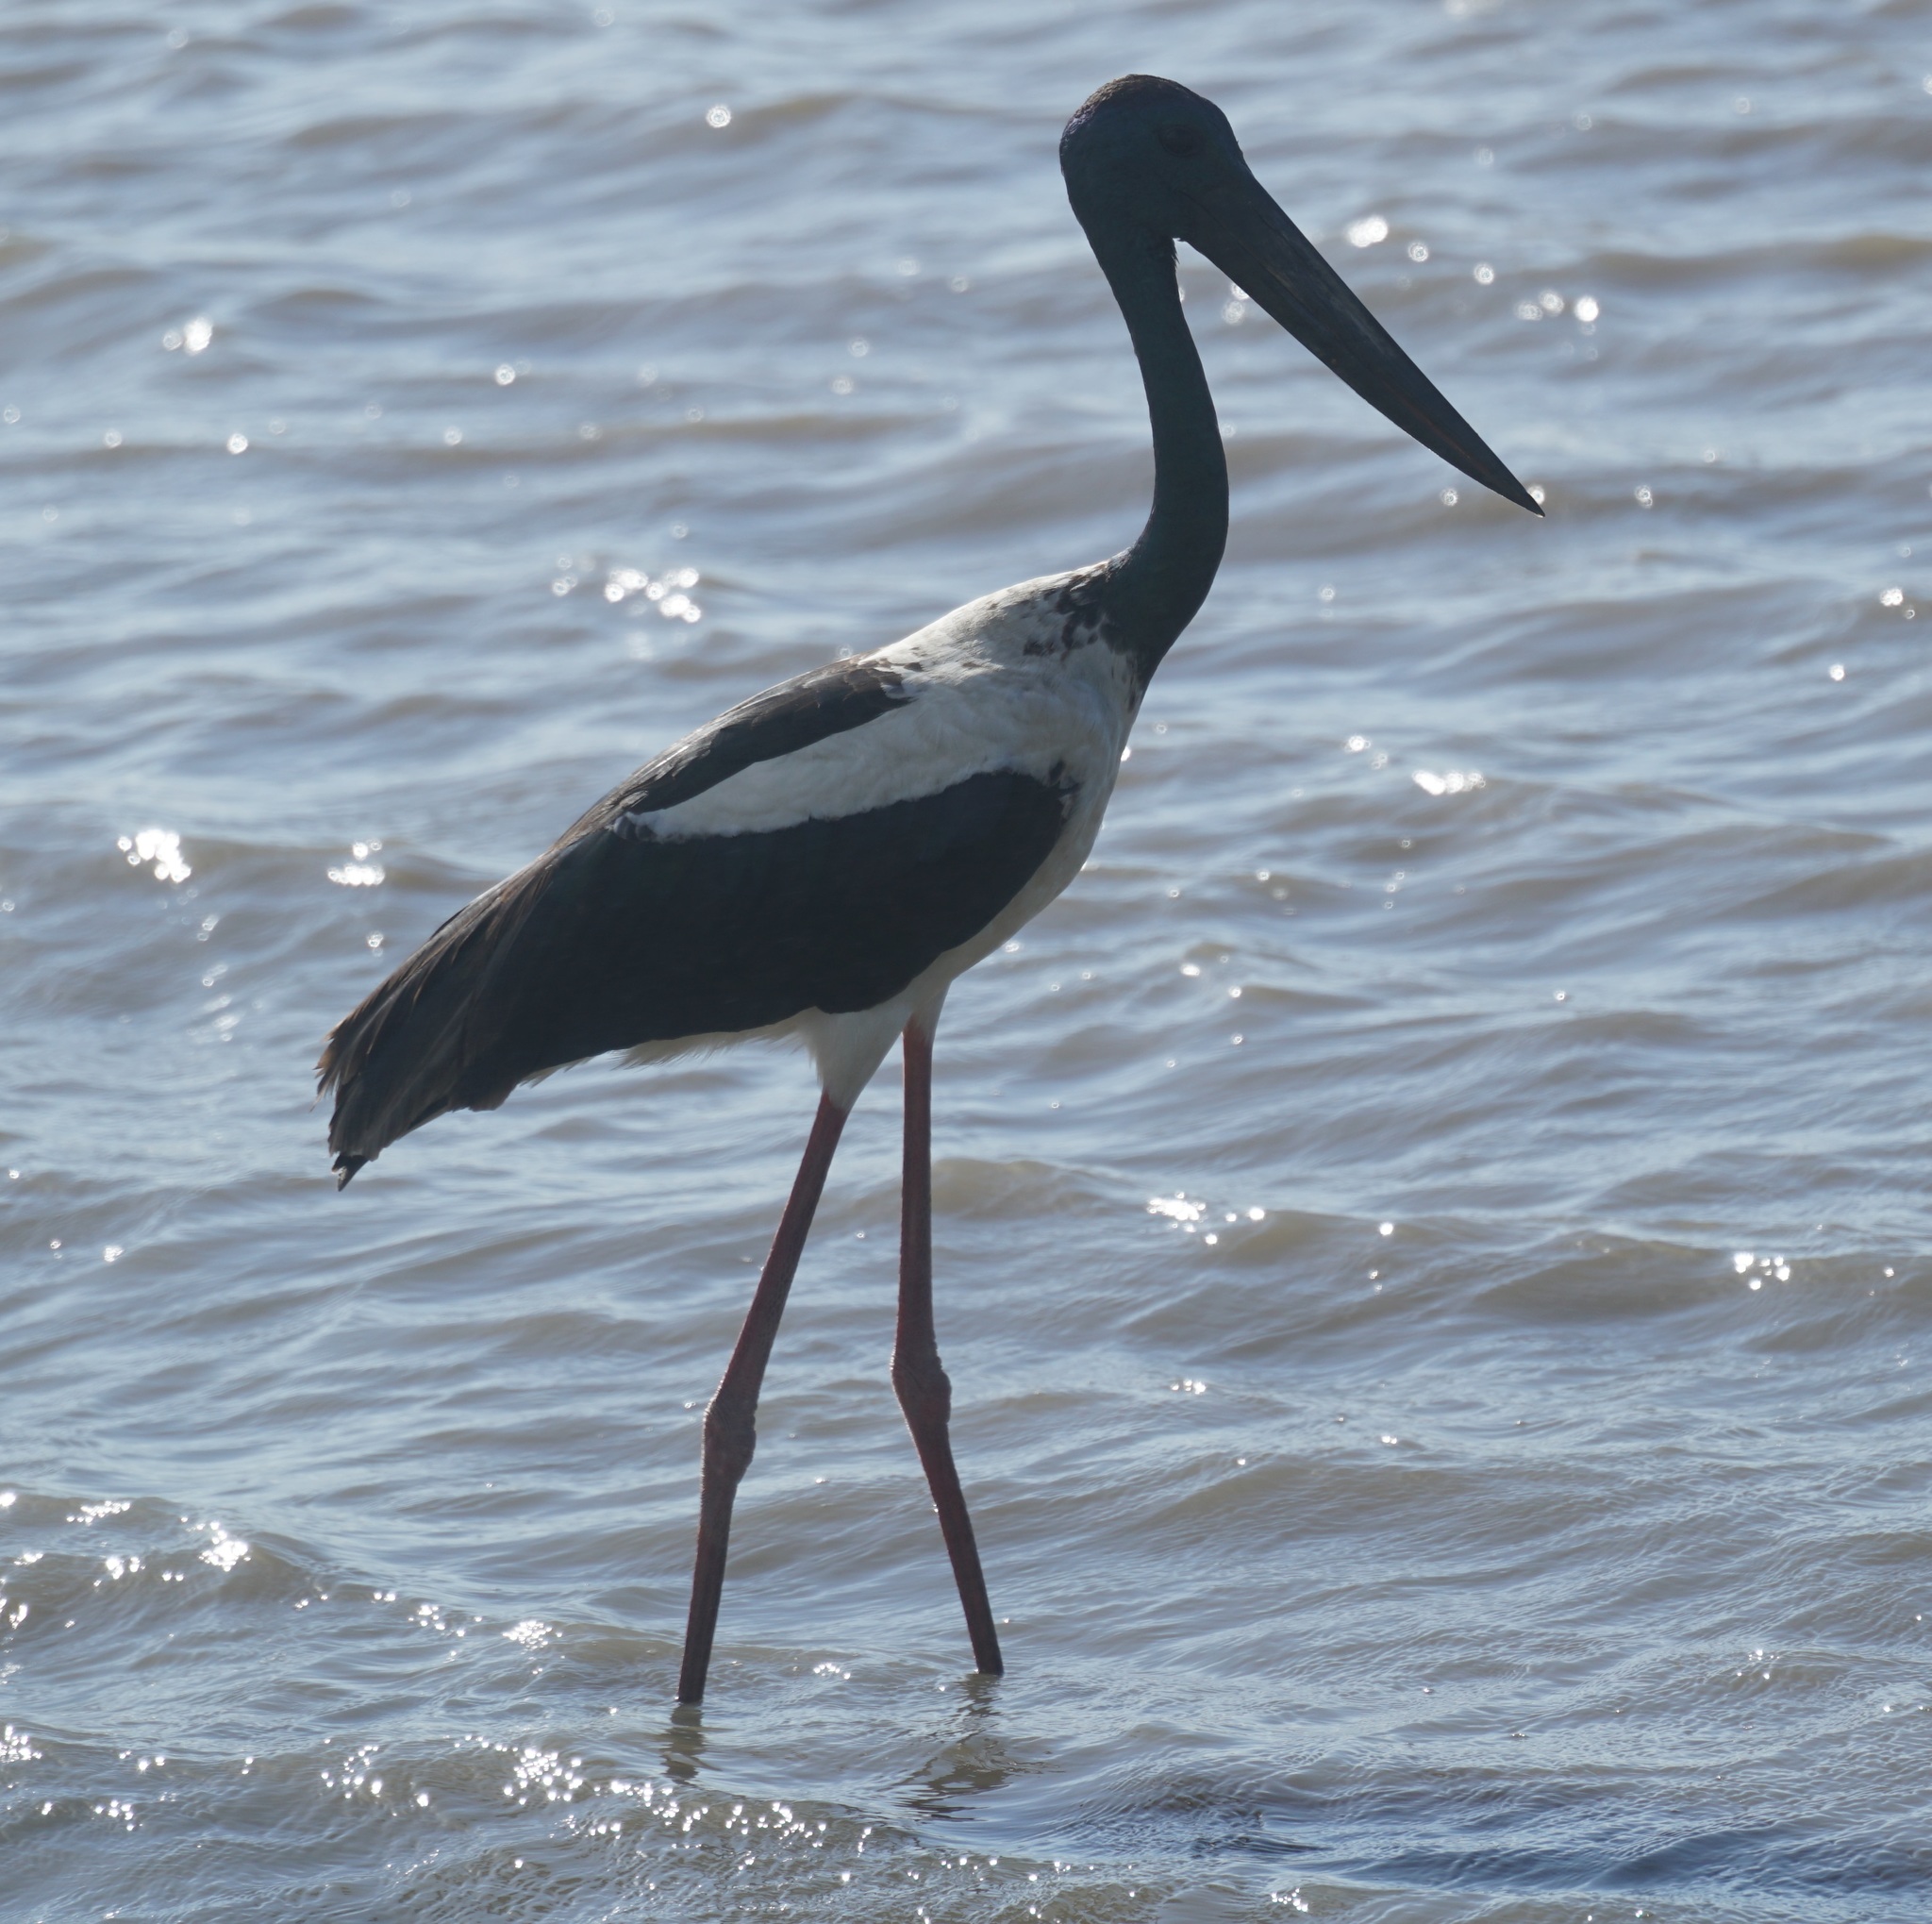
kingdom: Animalia
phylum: Chordata
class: Aves
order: Ciconiiformes
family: Ciconiidae
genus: Ephippiorhynchus
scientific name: Ephippiorhynchus asiaticus
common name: Black-necked stork
